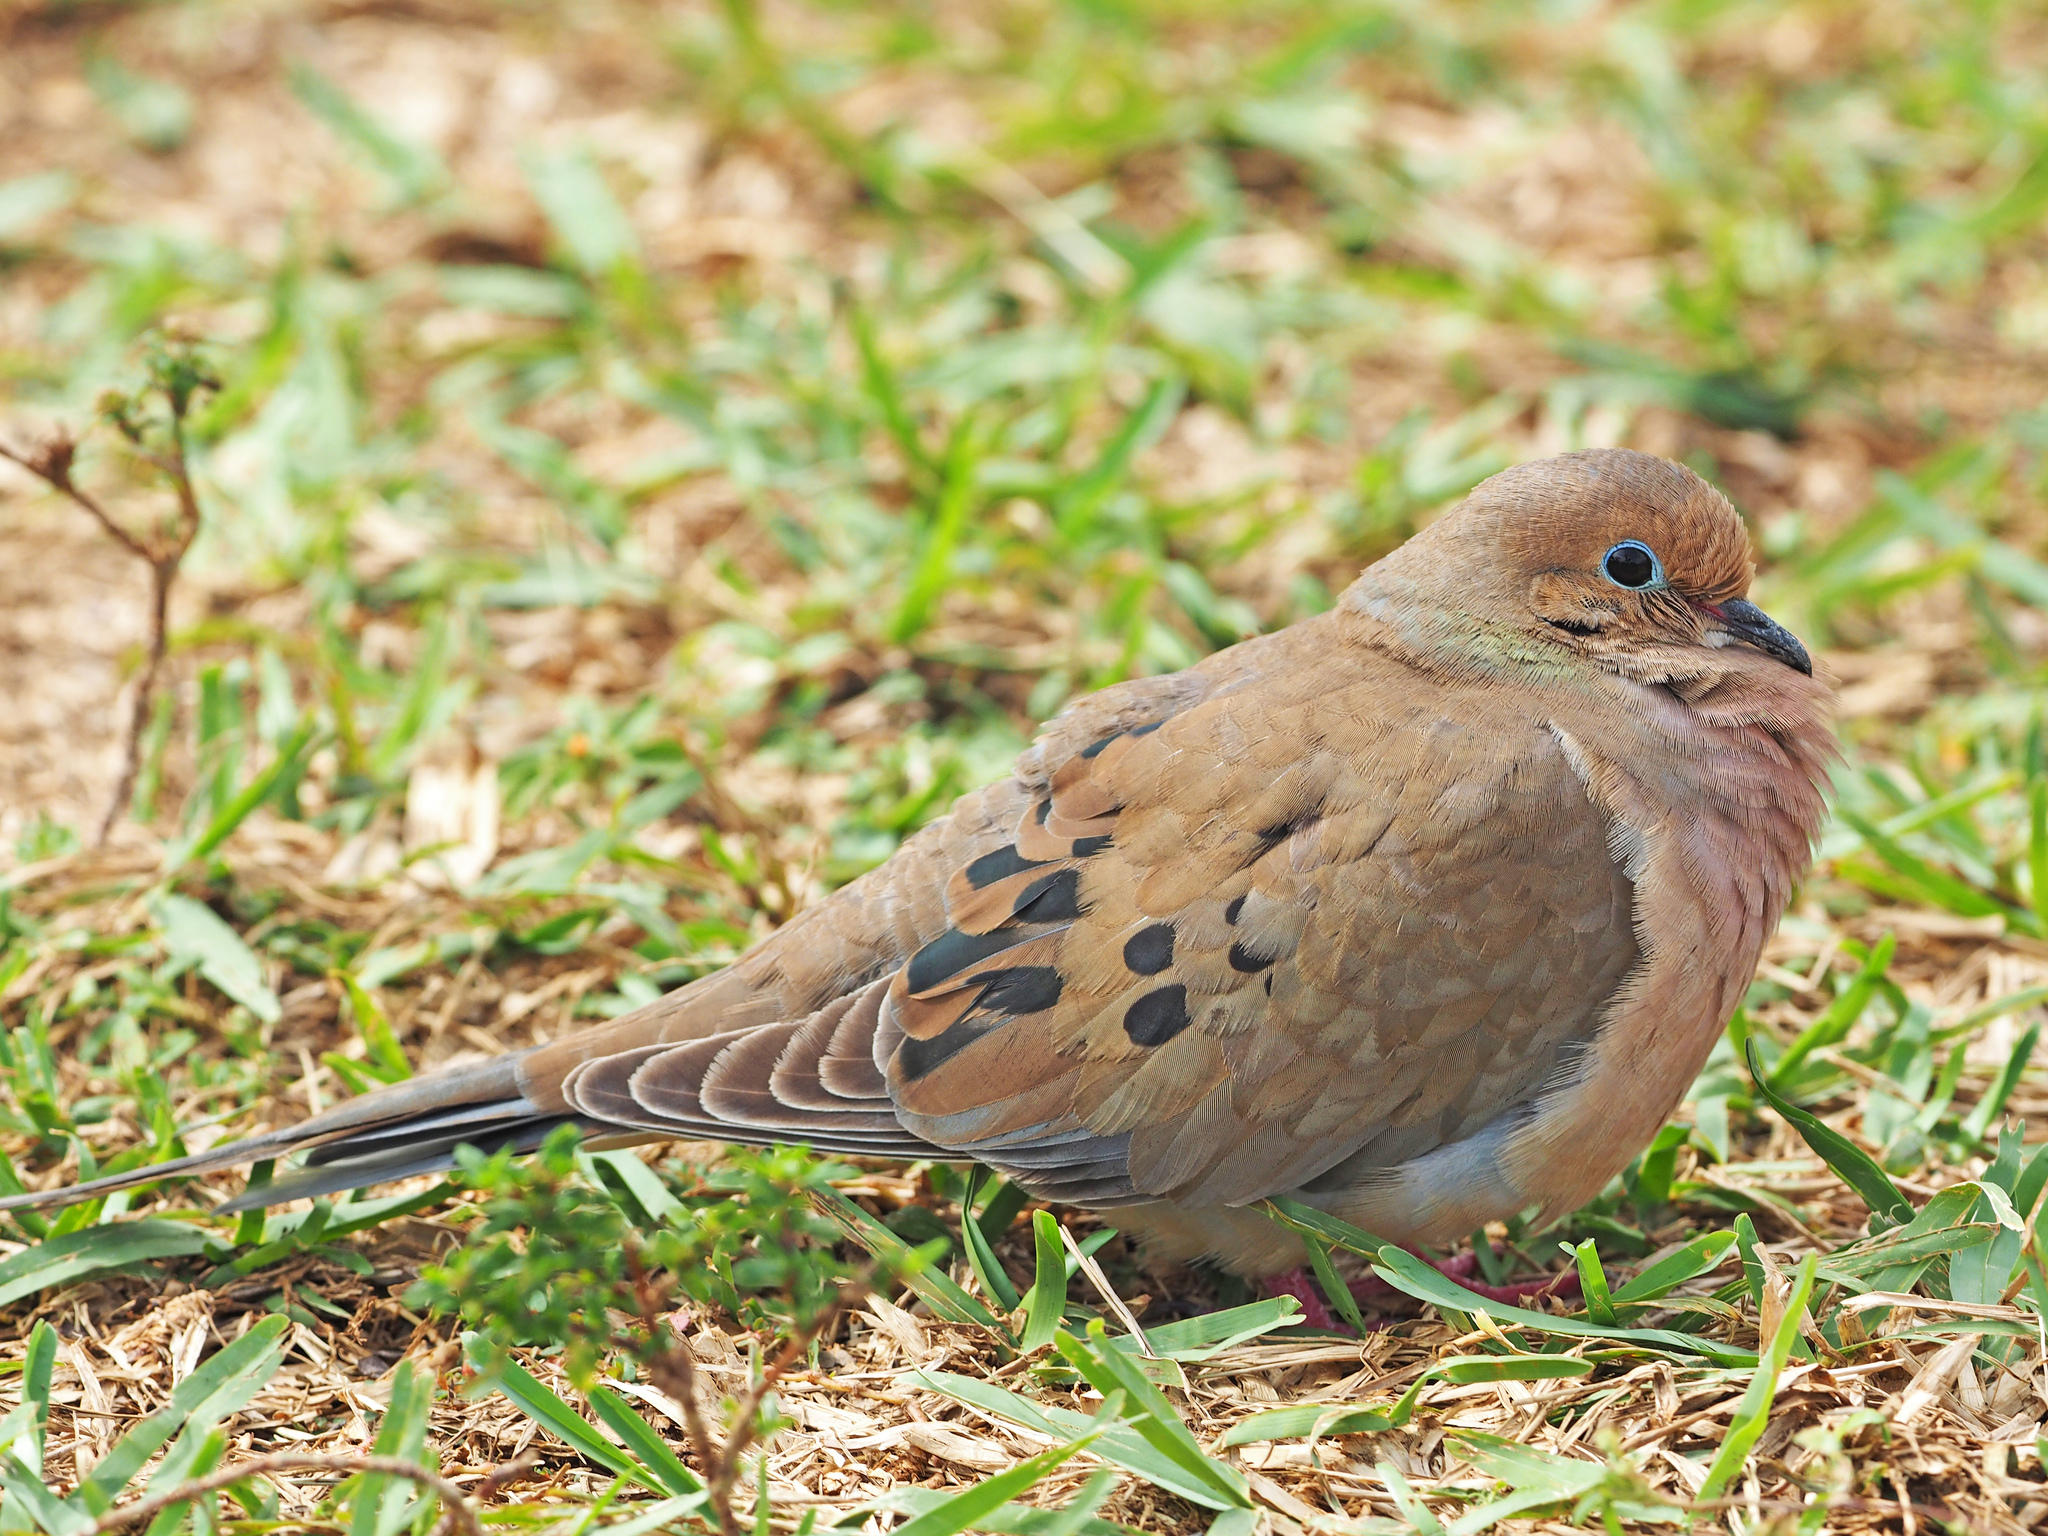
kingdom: Animalia
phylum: Chordata
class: Aves
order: Columbiformes
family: Columbidae
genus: Zenaida
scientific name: Zenaida macroura
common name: Mourning dove
